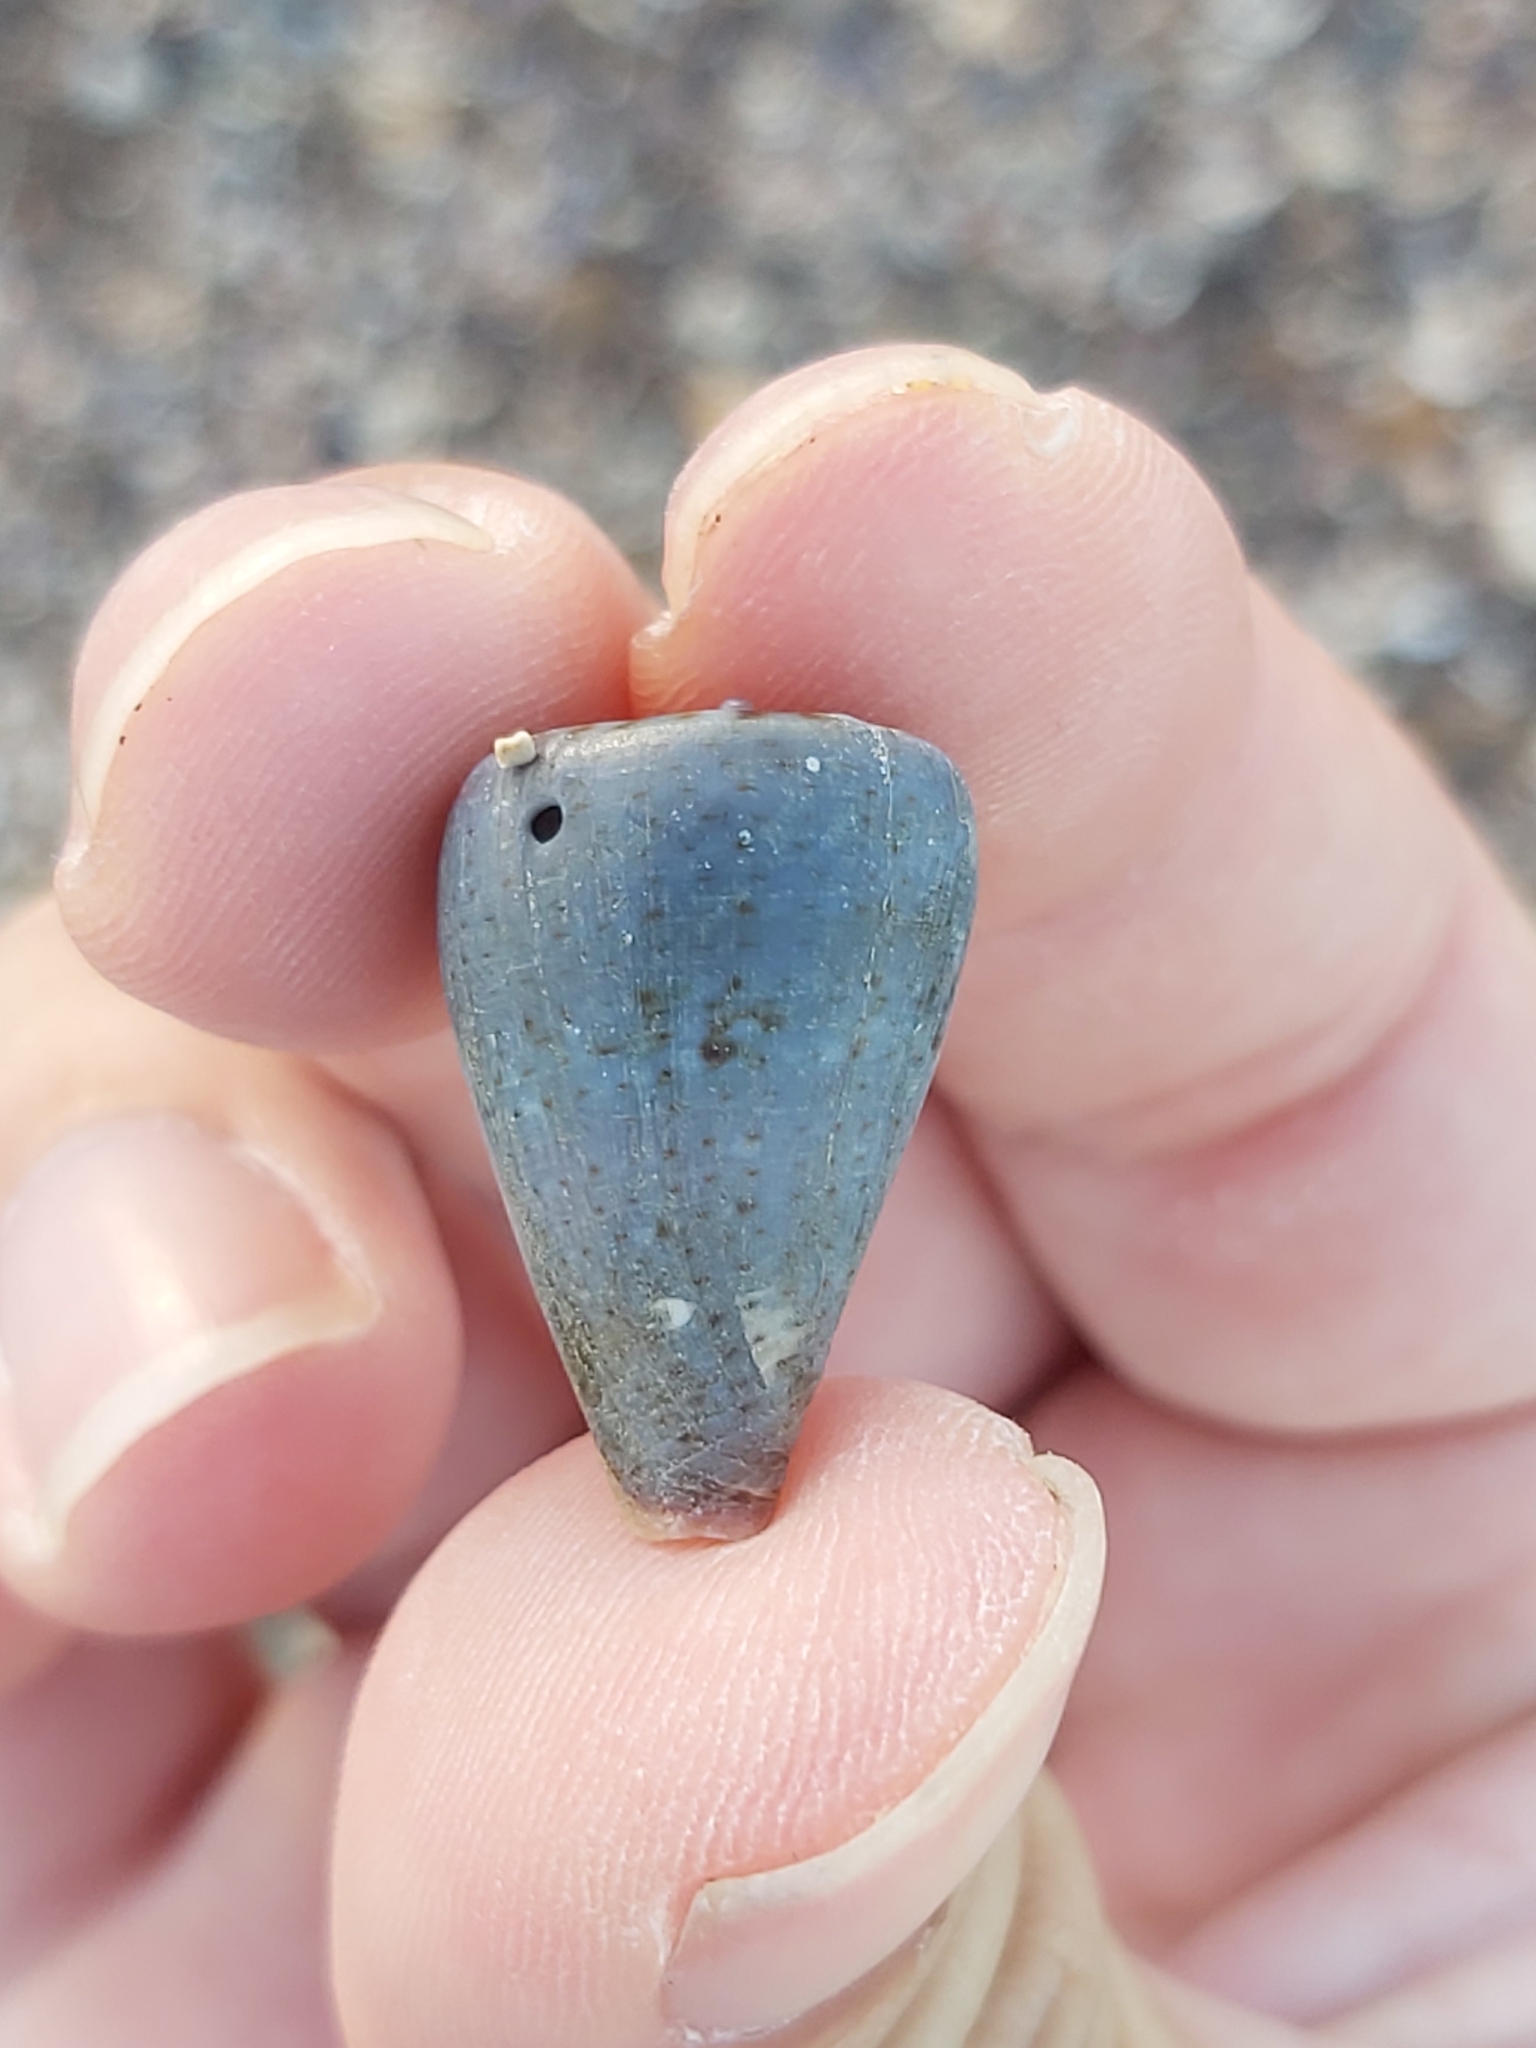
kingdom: Animalia
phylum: Mollusca
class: Gastropoda
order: Neogastropoda
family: Conidae
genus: Conus
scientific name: Conus papilliferus
